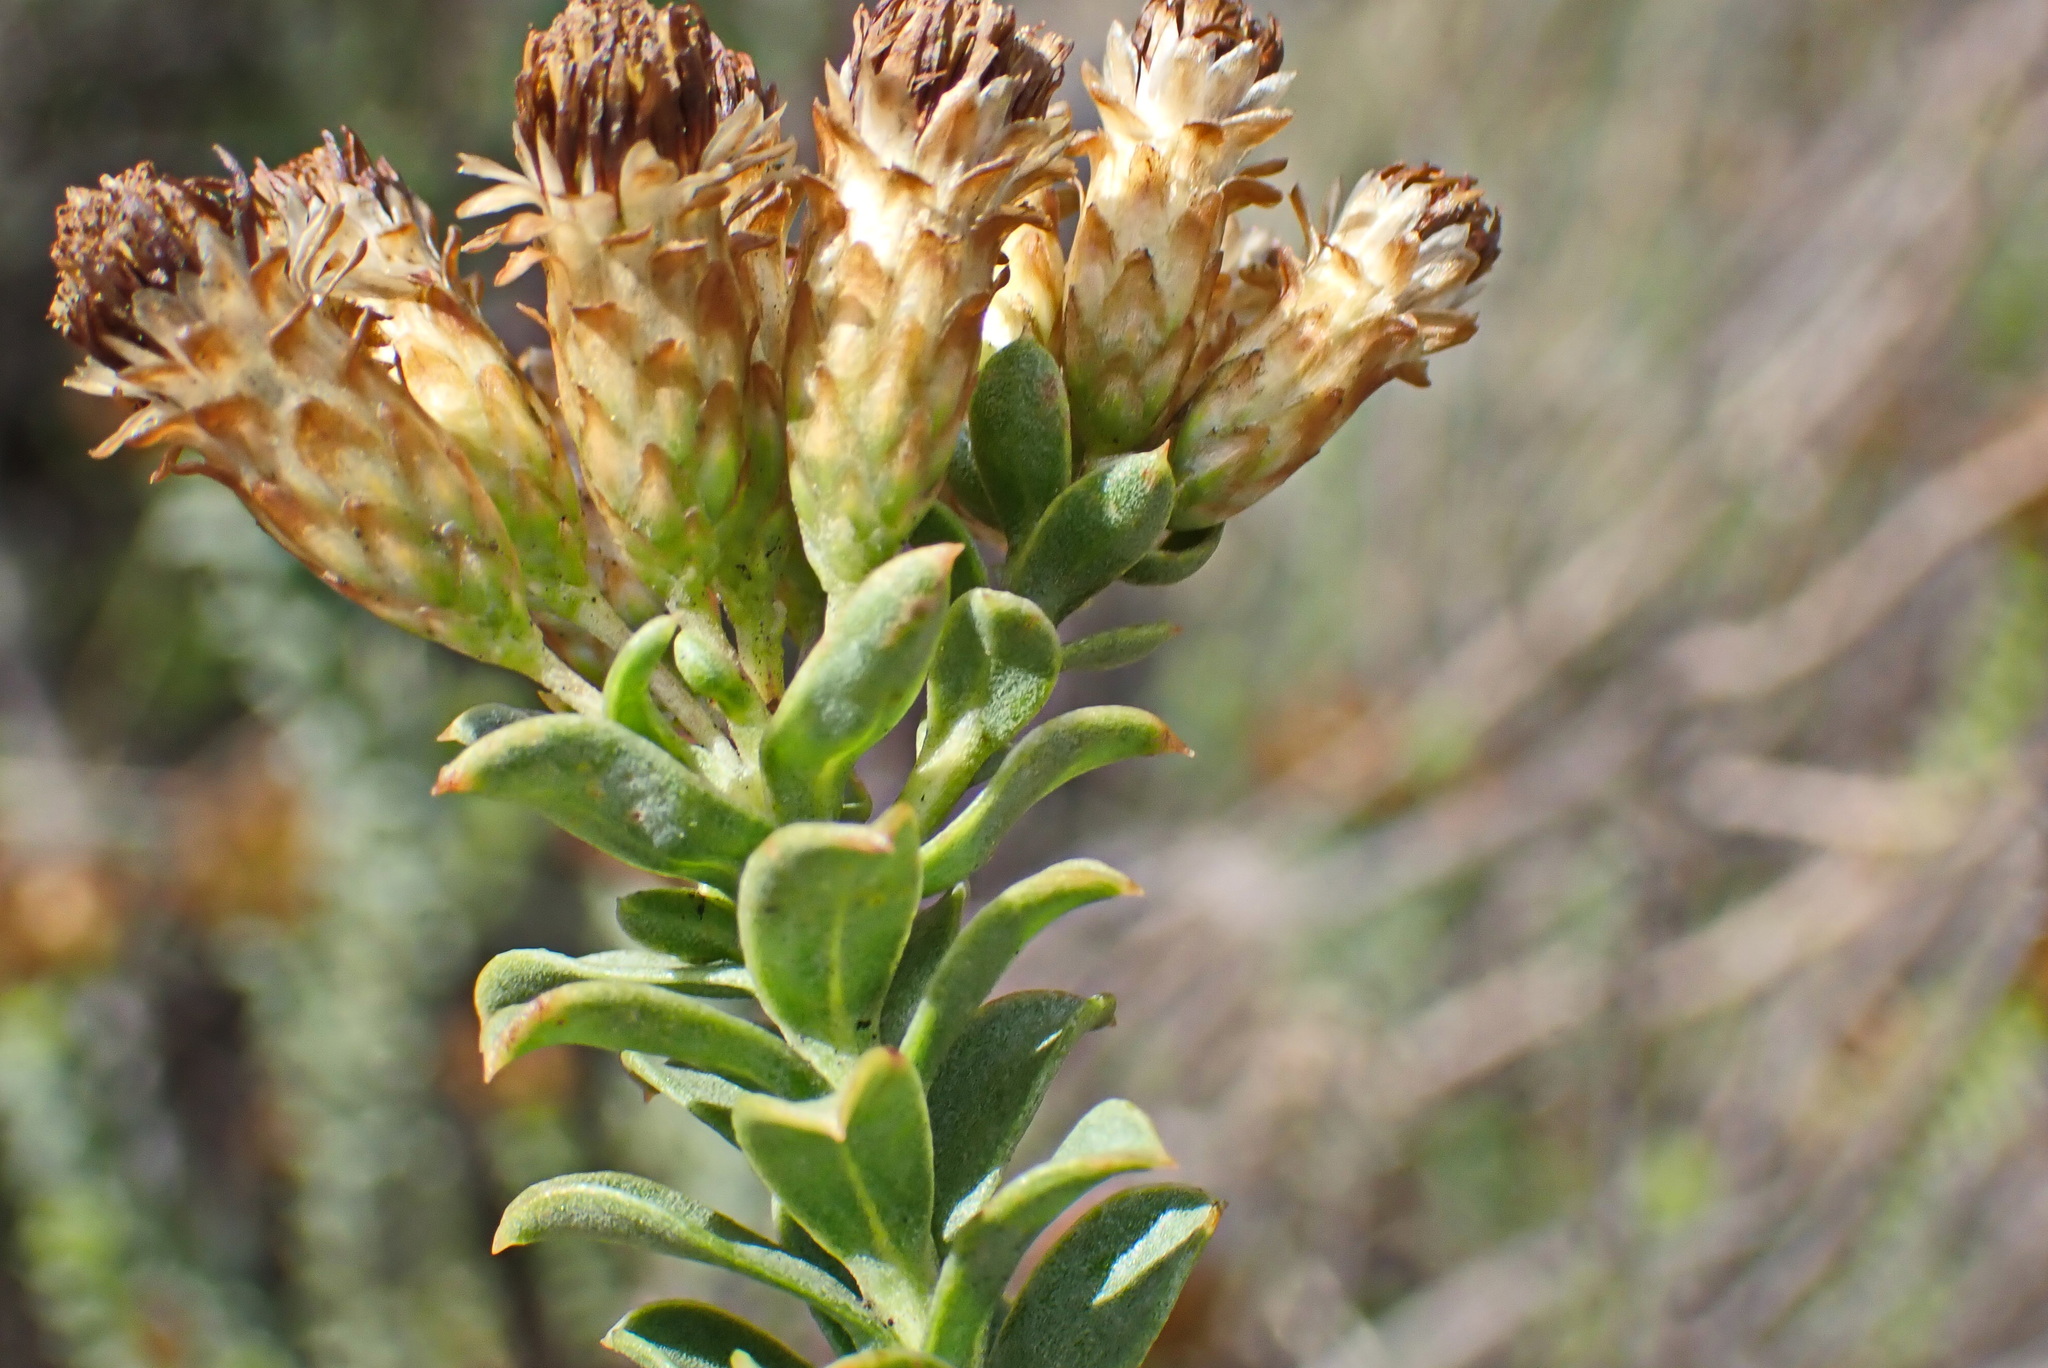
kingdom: Plantae
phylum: Tracheophyta
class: Magnoliopsida
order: Asterales
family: Asteraceae
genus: Pteronia
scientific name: Pteronia staehelinoides
